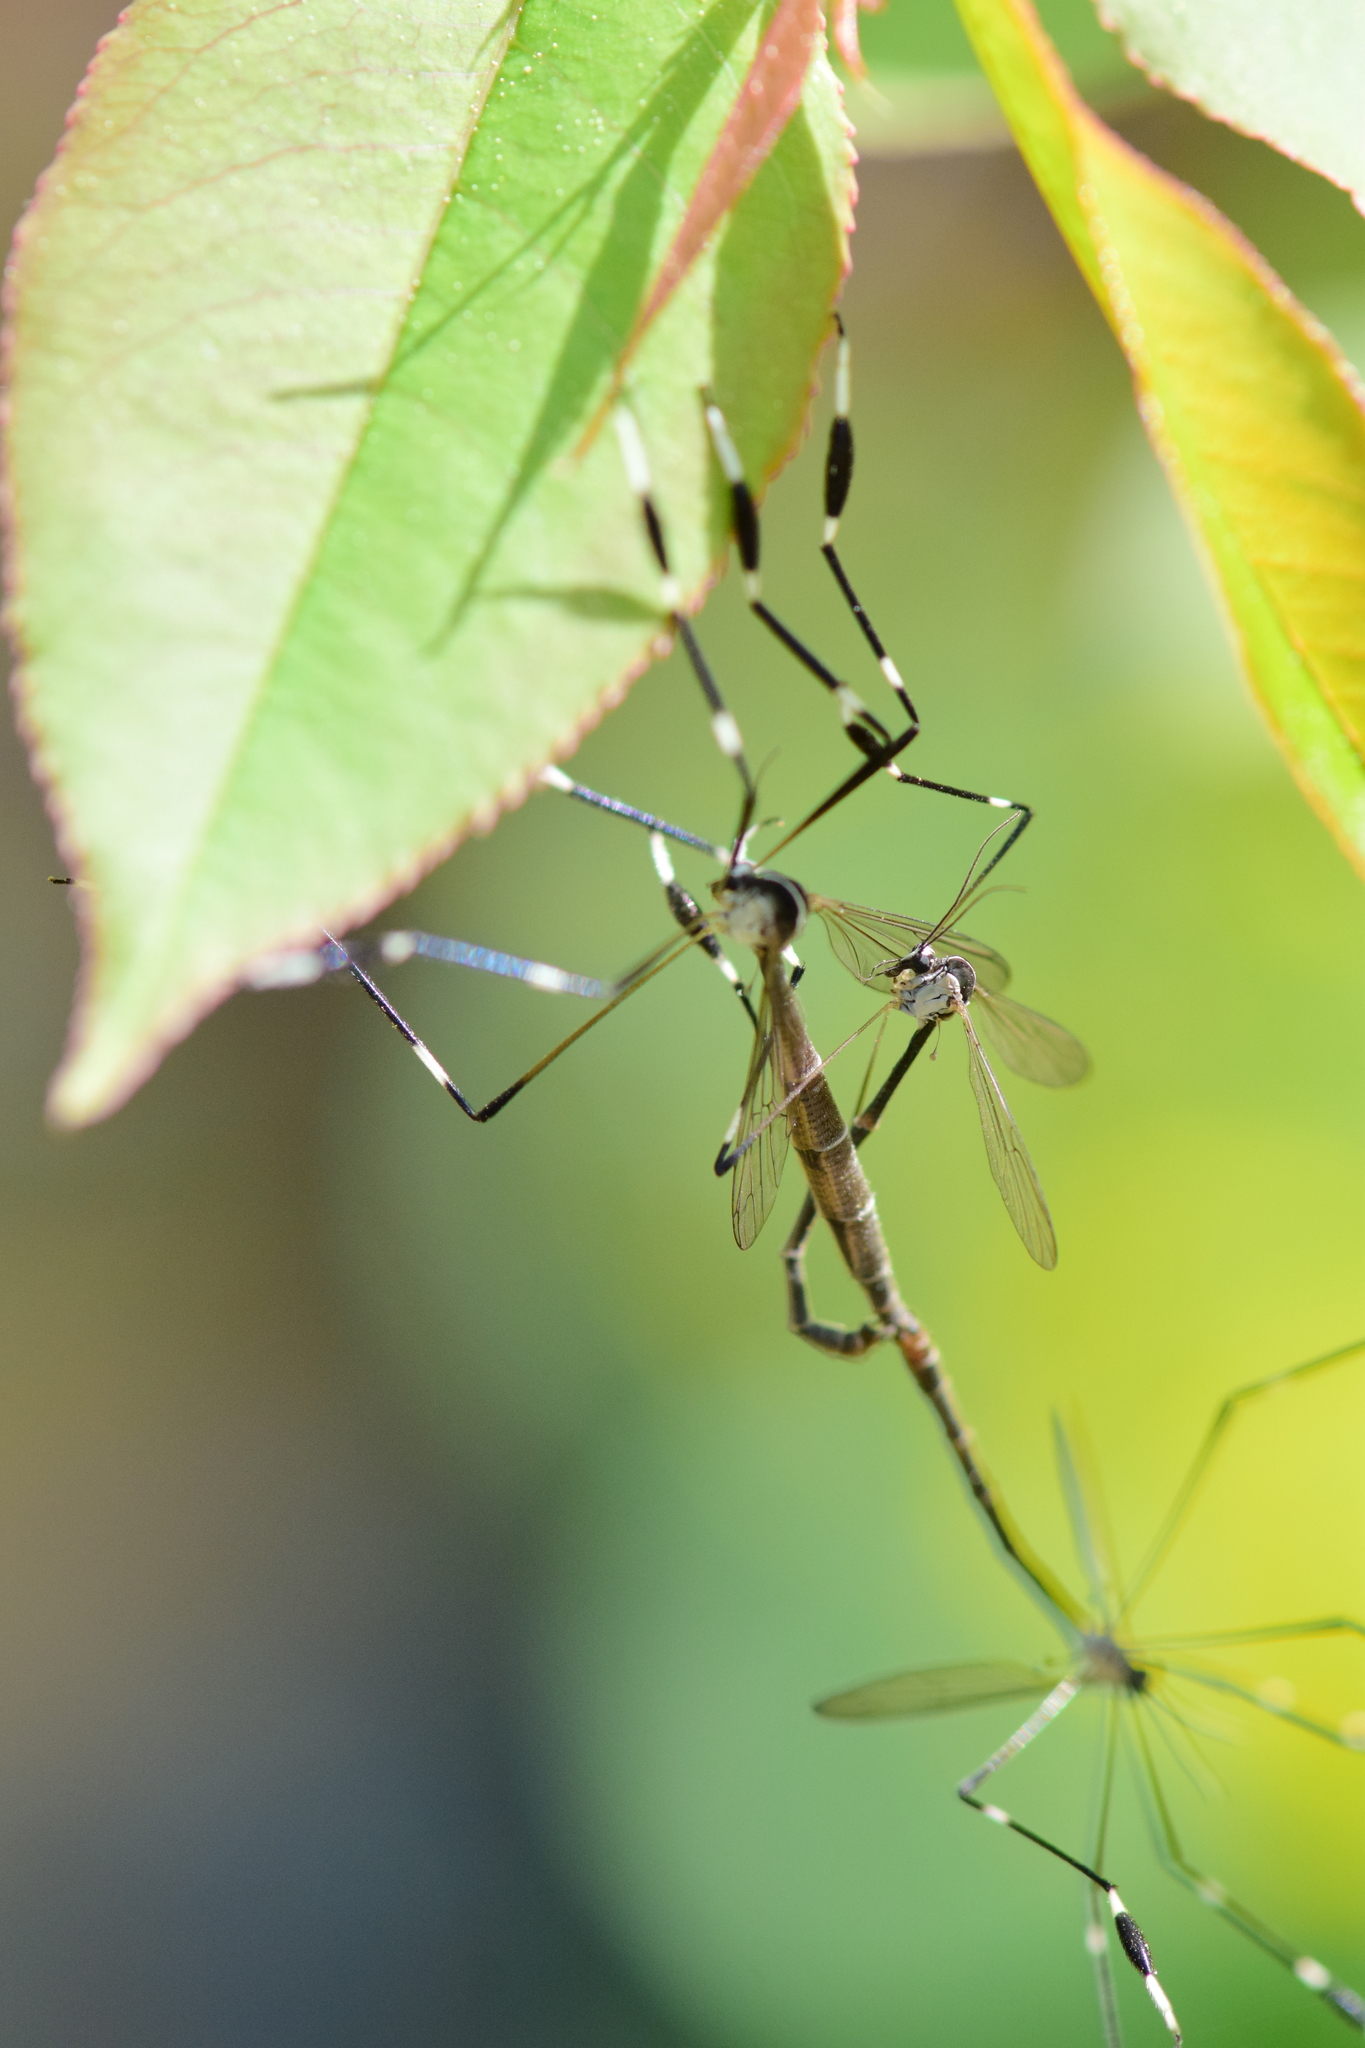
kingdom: Animalia
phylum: Arthropoda
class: Insecta
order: Diptera
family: Ptychopteridae
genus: Bittacomorpha
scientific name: Bittacomorpha clavipes
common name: Eastern phantom crane fly
